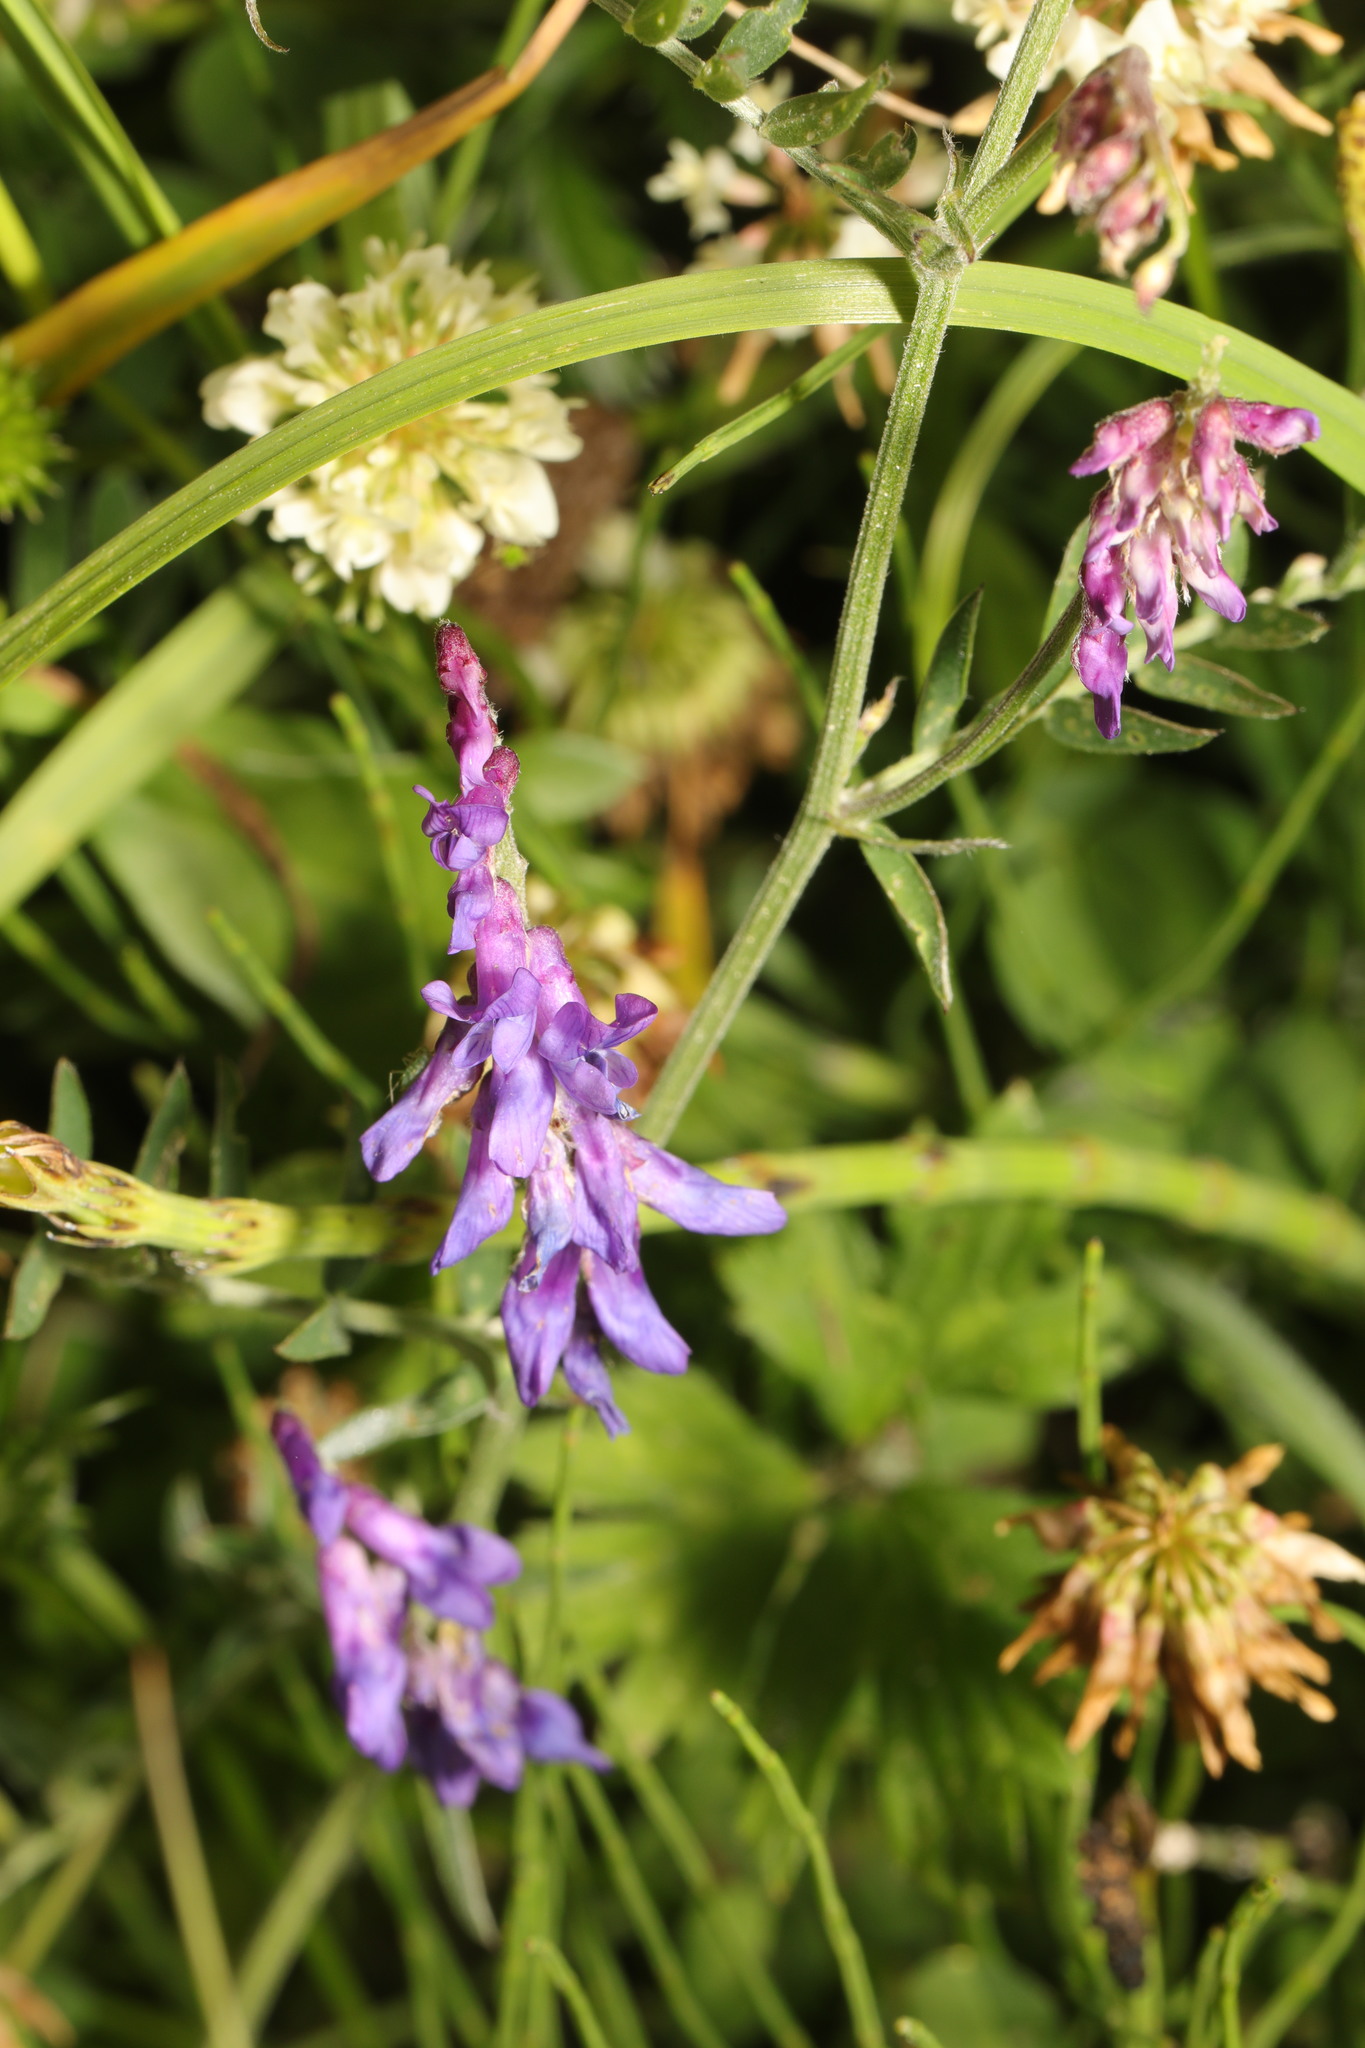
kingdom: Plantae
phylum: Tracheophyta
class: Magnoliopsida
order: Fabales
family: Fabaceae
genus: Vicia
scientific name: Vicia cracca
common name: Bird vetch
